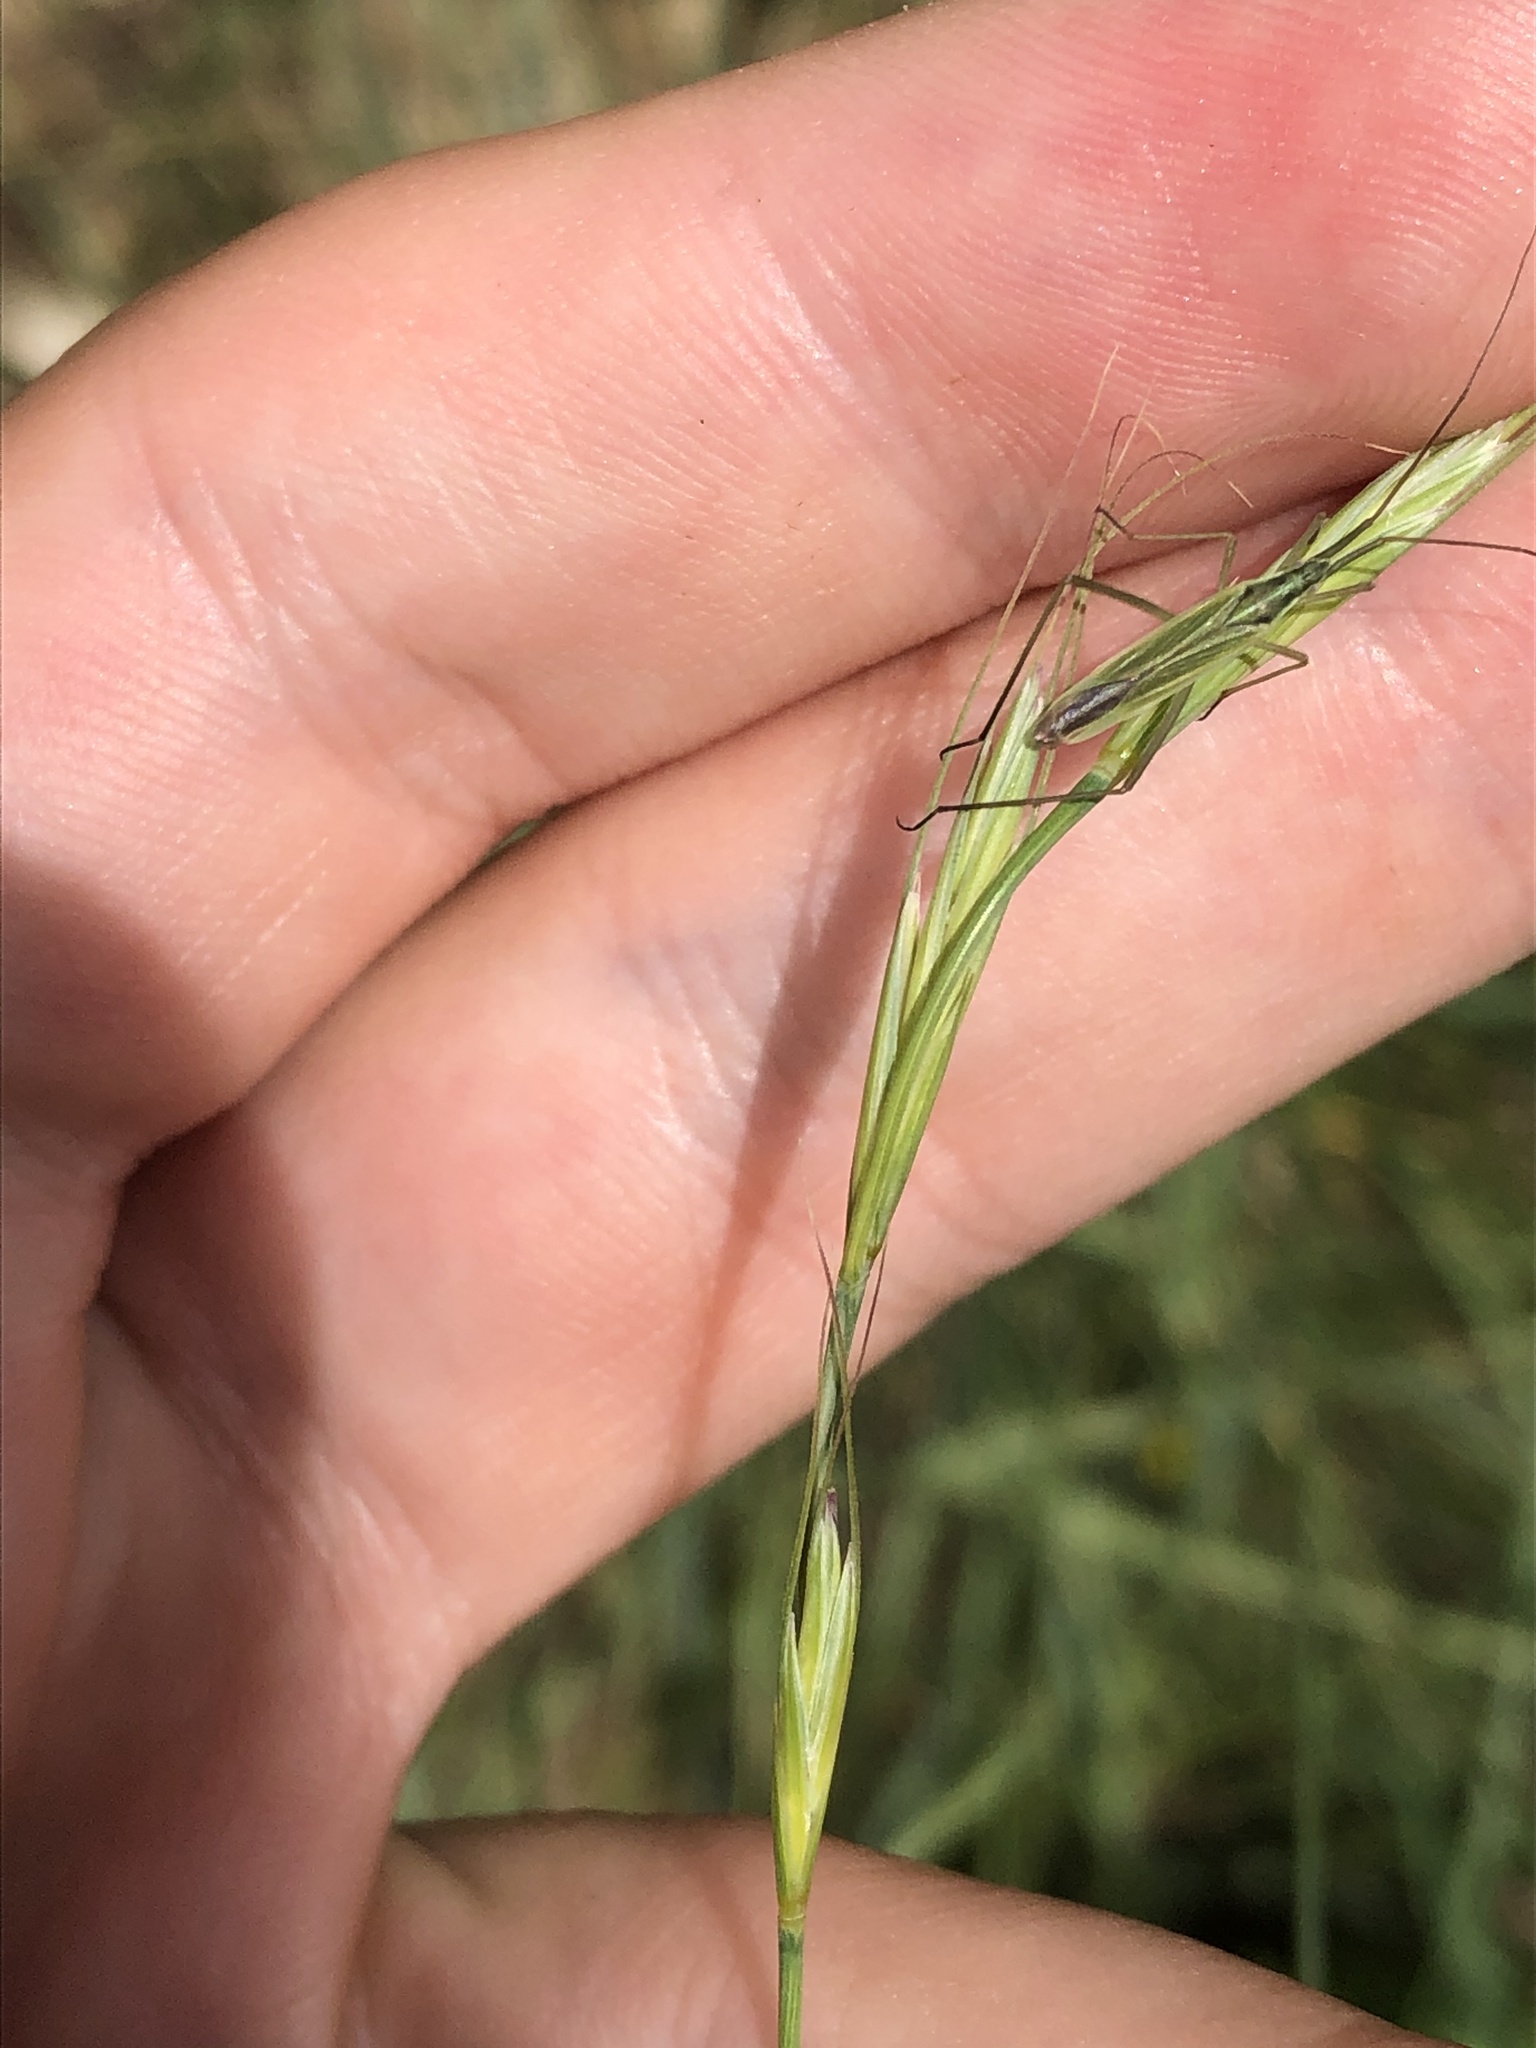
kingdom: Animalia
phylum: Arthropoda
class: Insecta
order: Hemiptera
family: Miridae
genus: Megaloceroea
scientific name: Megaloceroea recticornis
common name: Plant bug
